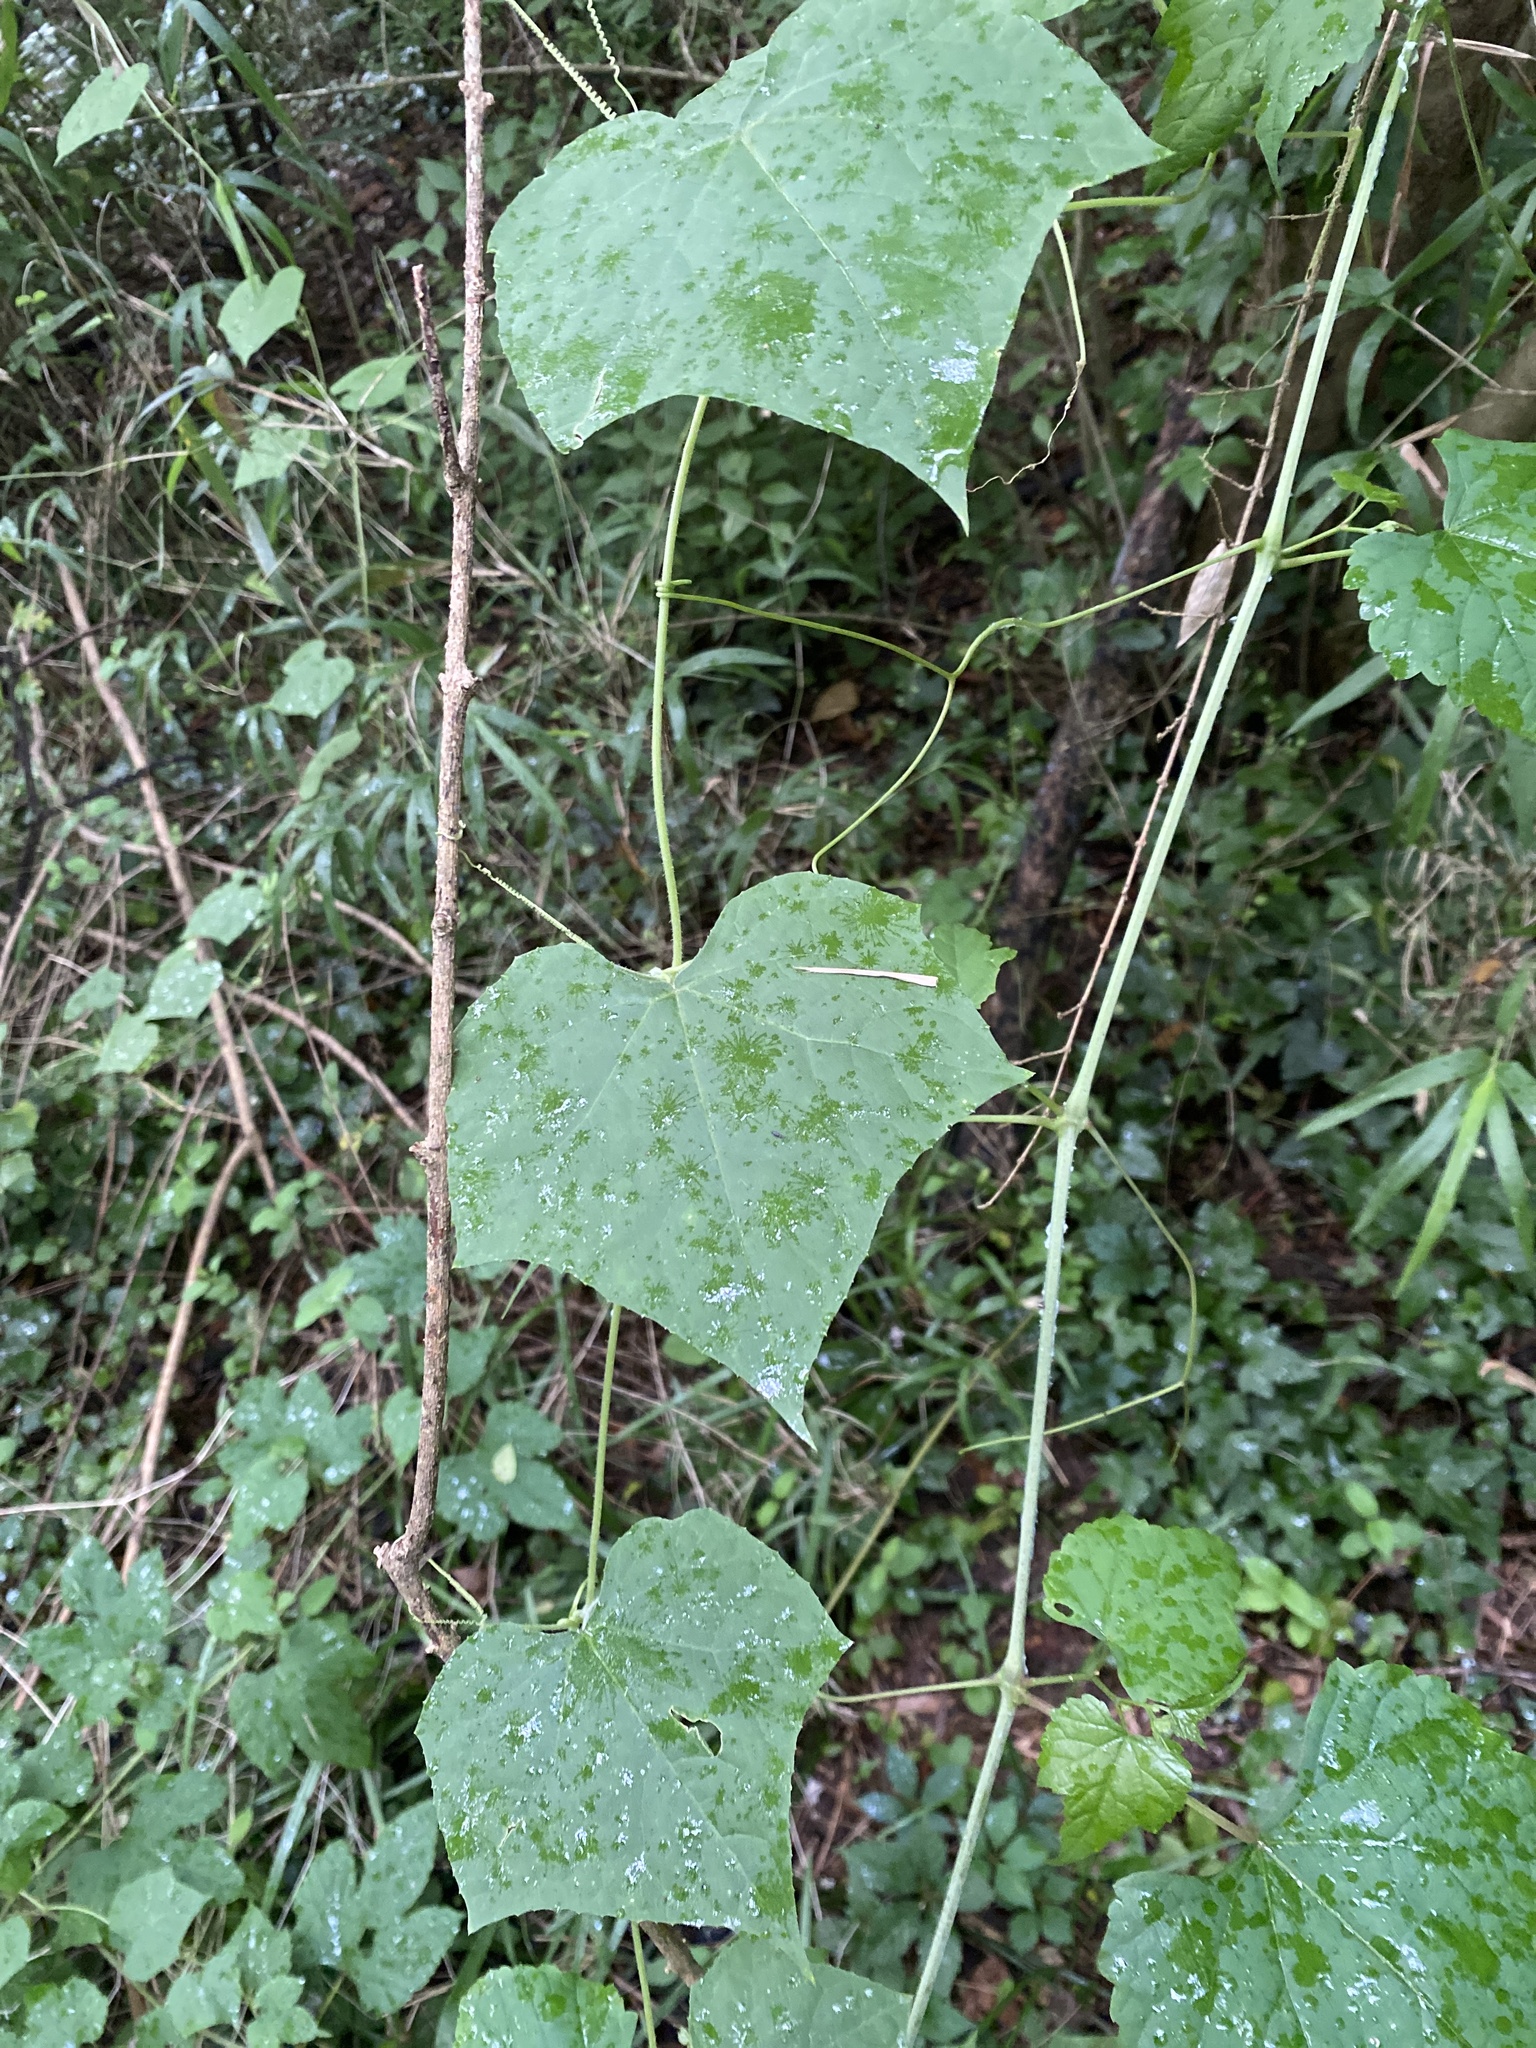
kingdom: Plantae
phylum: Tracheophyta
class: Magnoliopsida
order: Cucurbitales
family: Cucurbitaceae
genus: Sicyos
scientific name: Sicyos angulatus
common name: Angled burr cucumber
